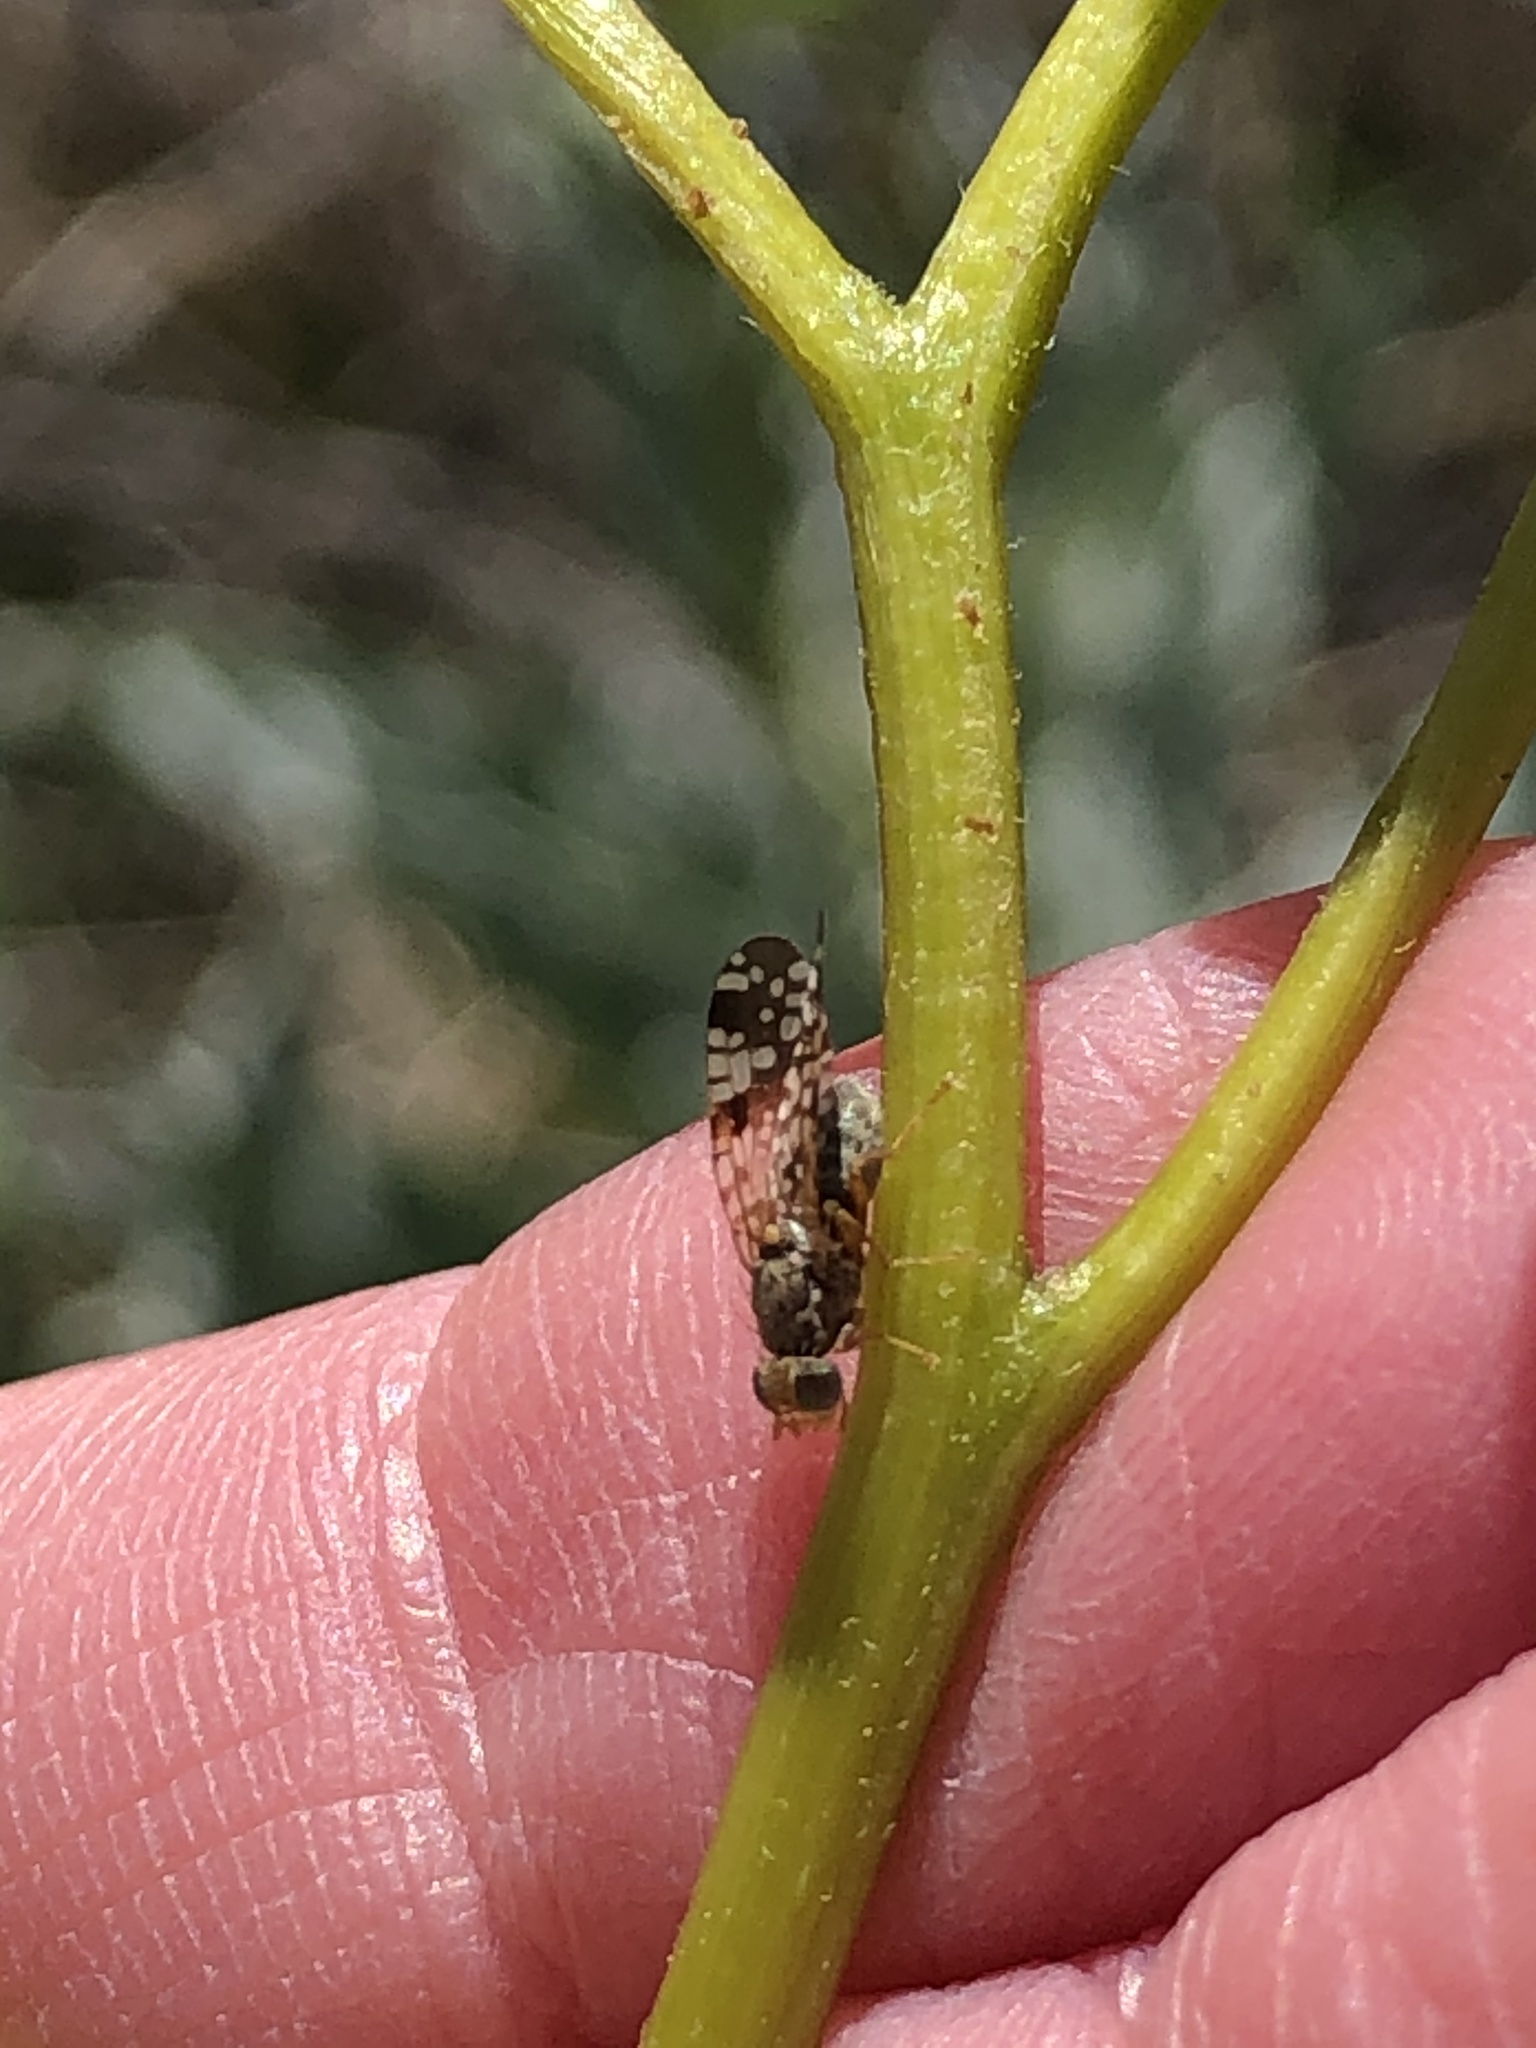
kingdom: Animalia
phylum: Arthropoda
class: Insecta
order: Diptera
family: Tephritidae
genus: Neotephritis
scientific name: Neotephritis finalis
